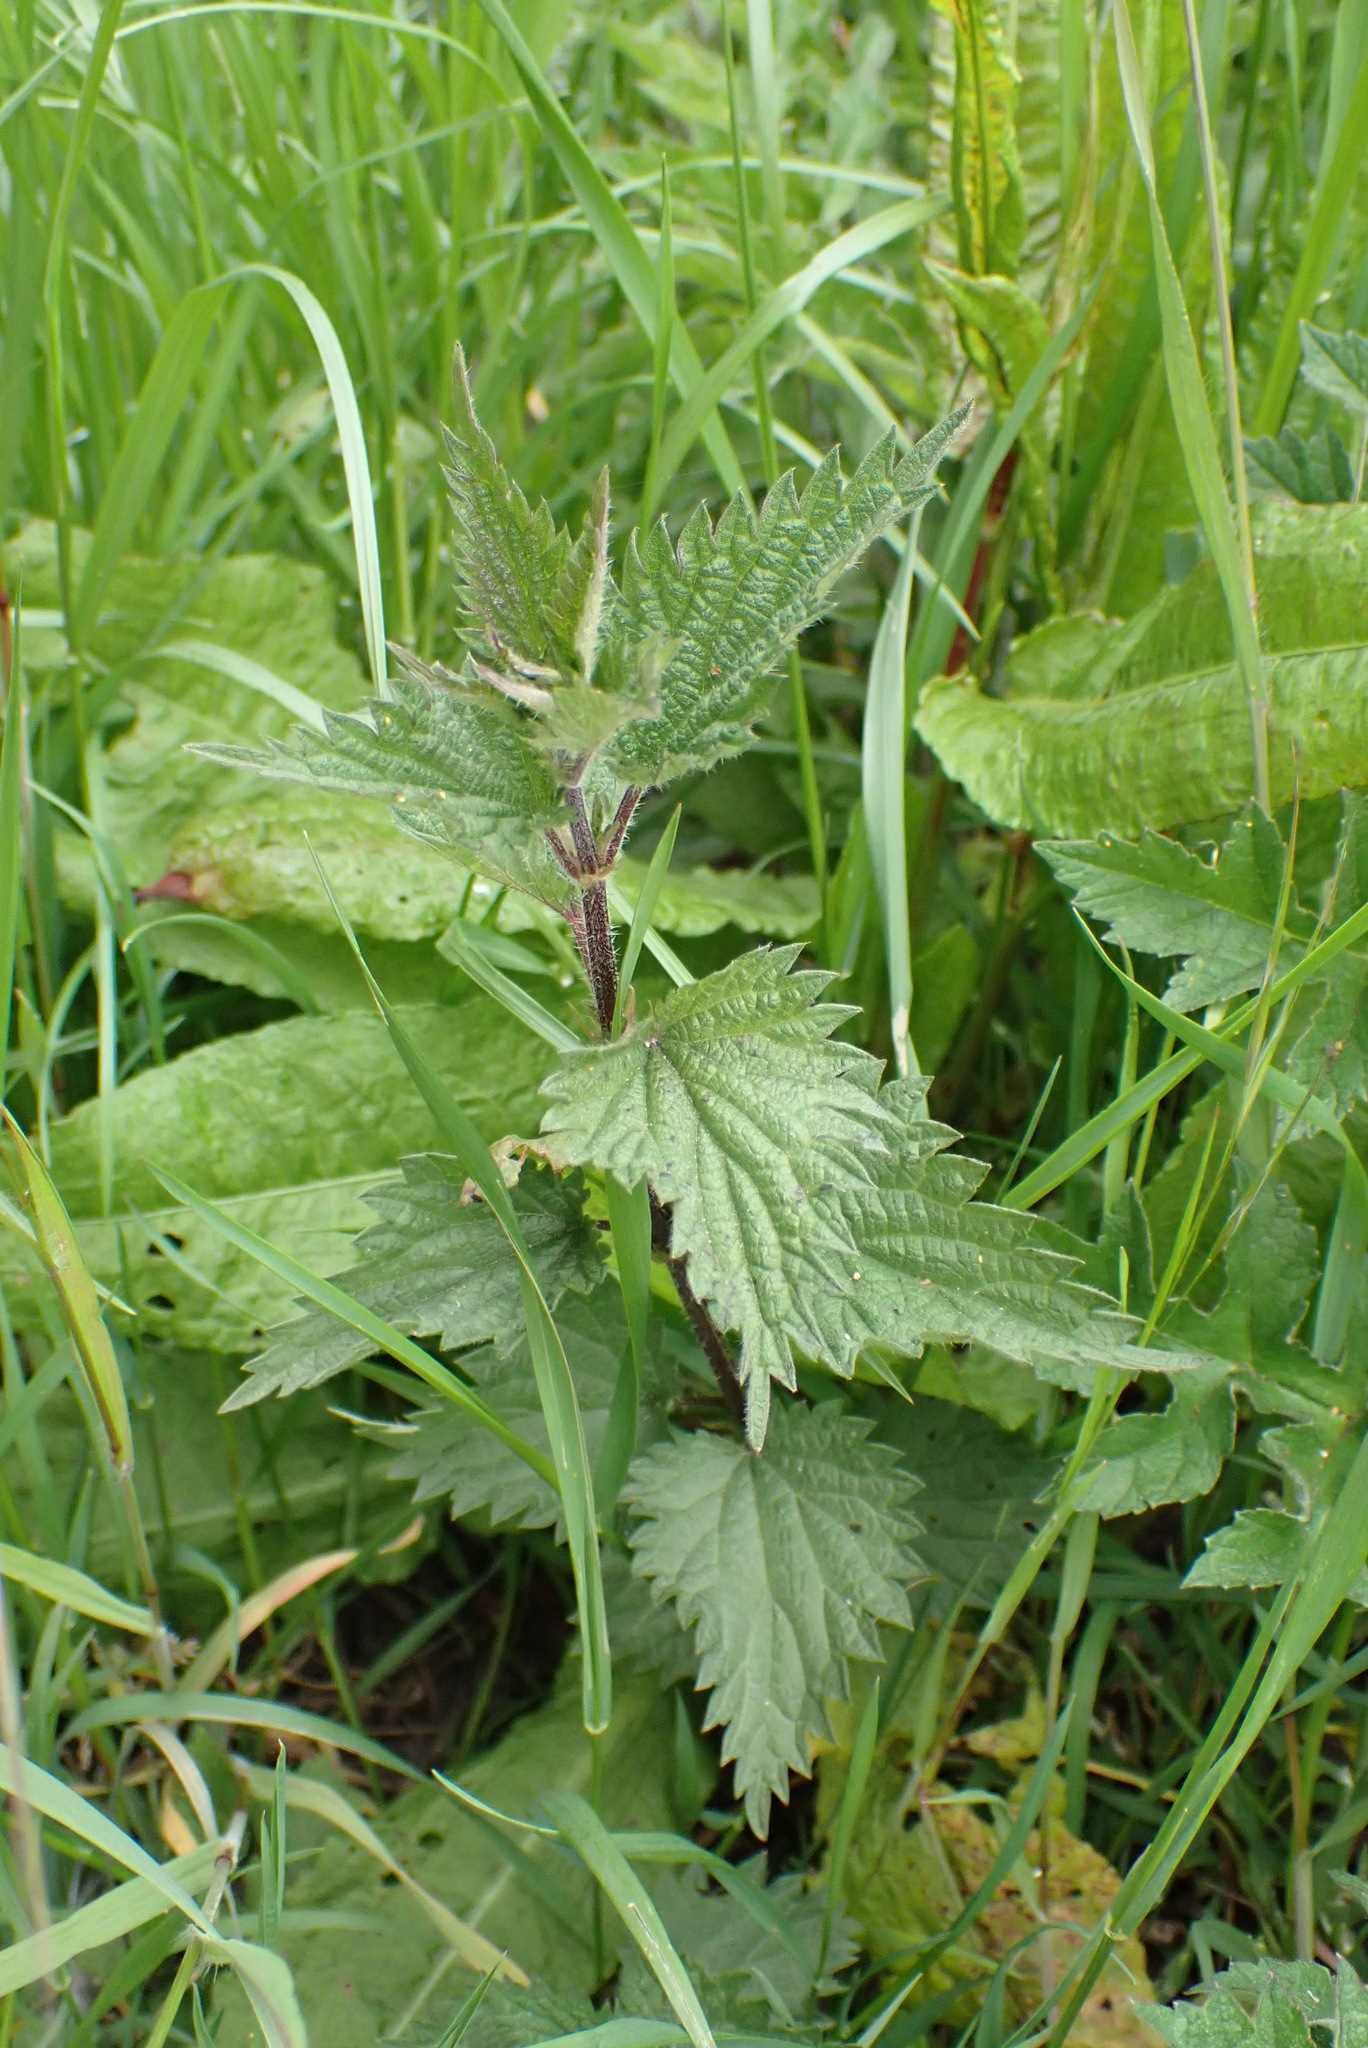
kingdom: Plantae
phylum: Tracheophyta
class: Magnoliopsida
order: Rosales
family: Urticaceae
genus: Urtica
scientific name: Urtica dioica
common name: Common nettle
